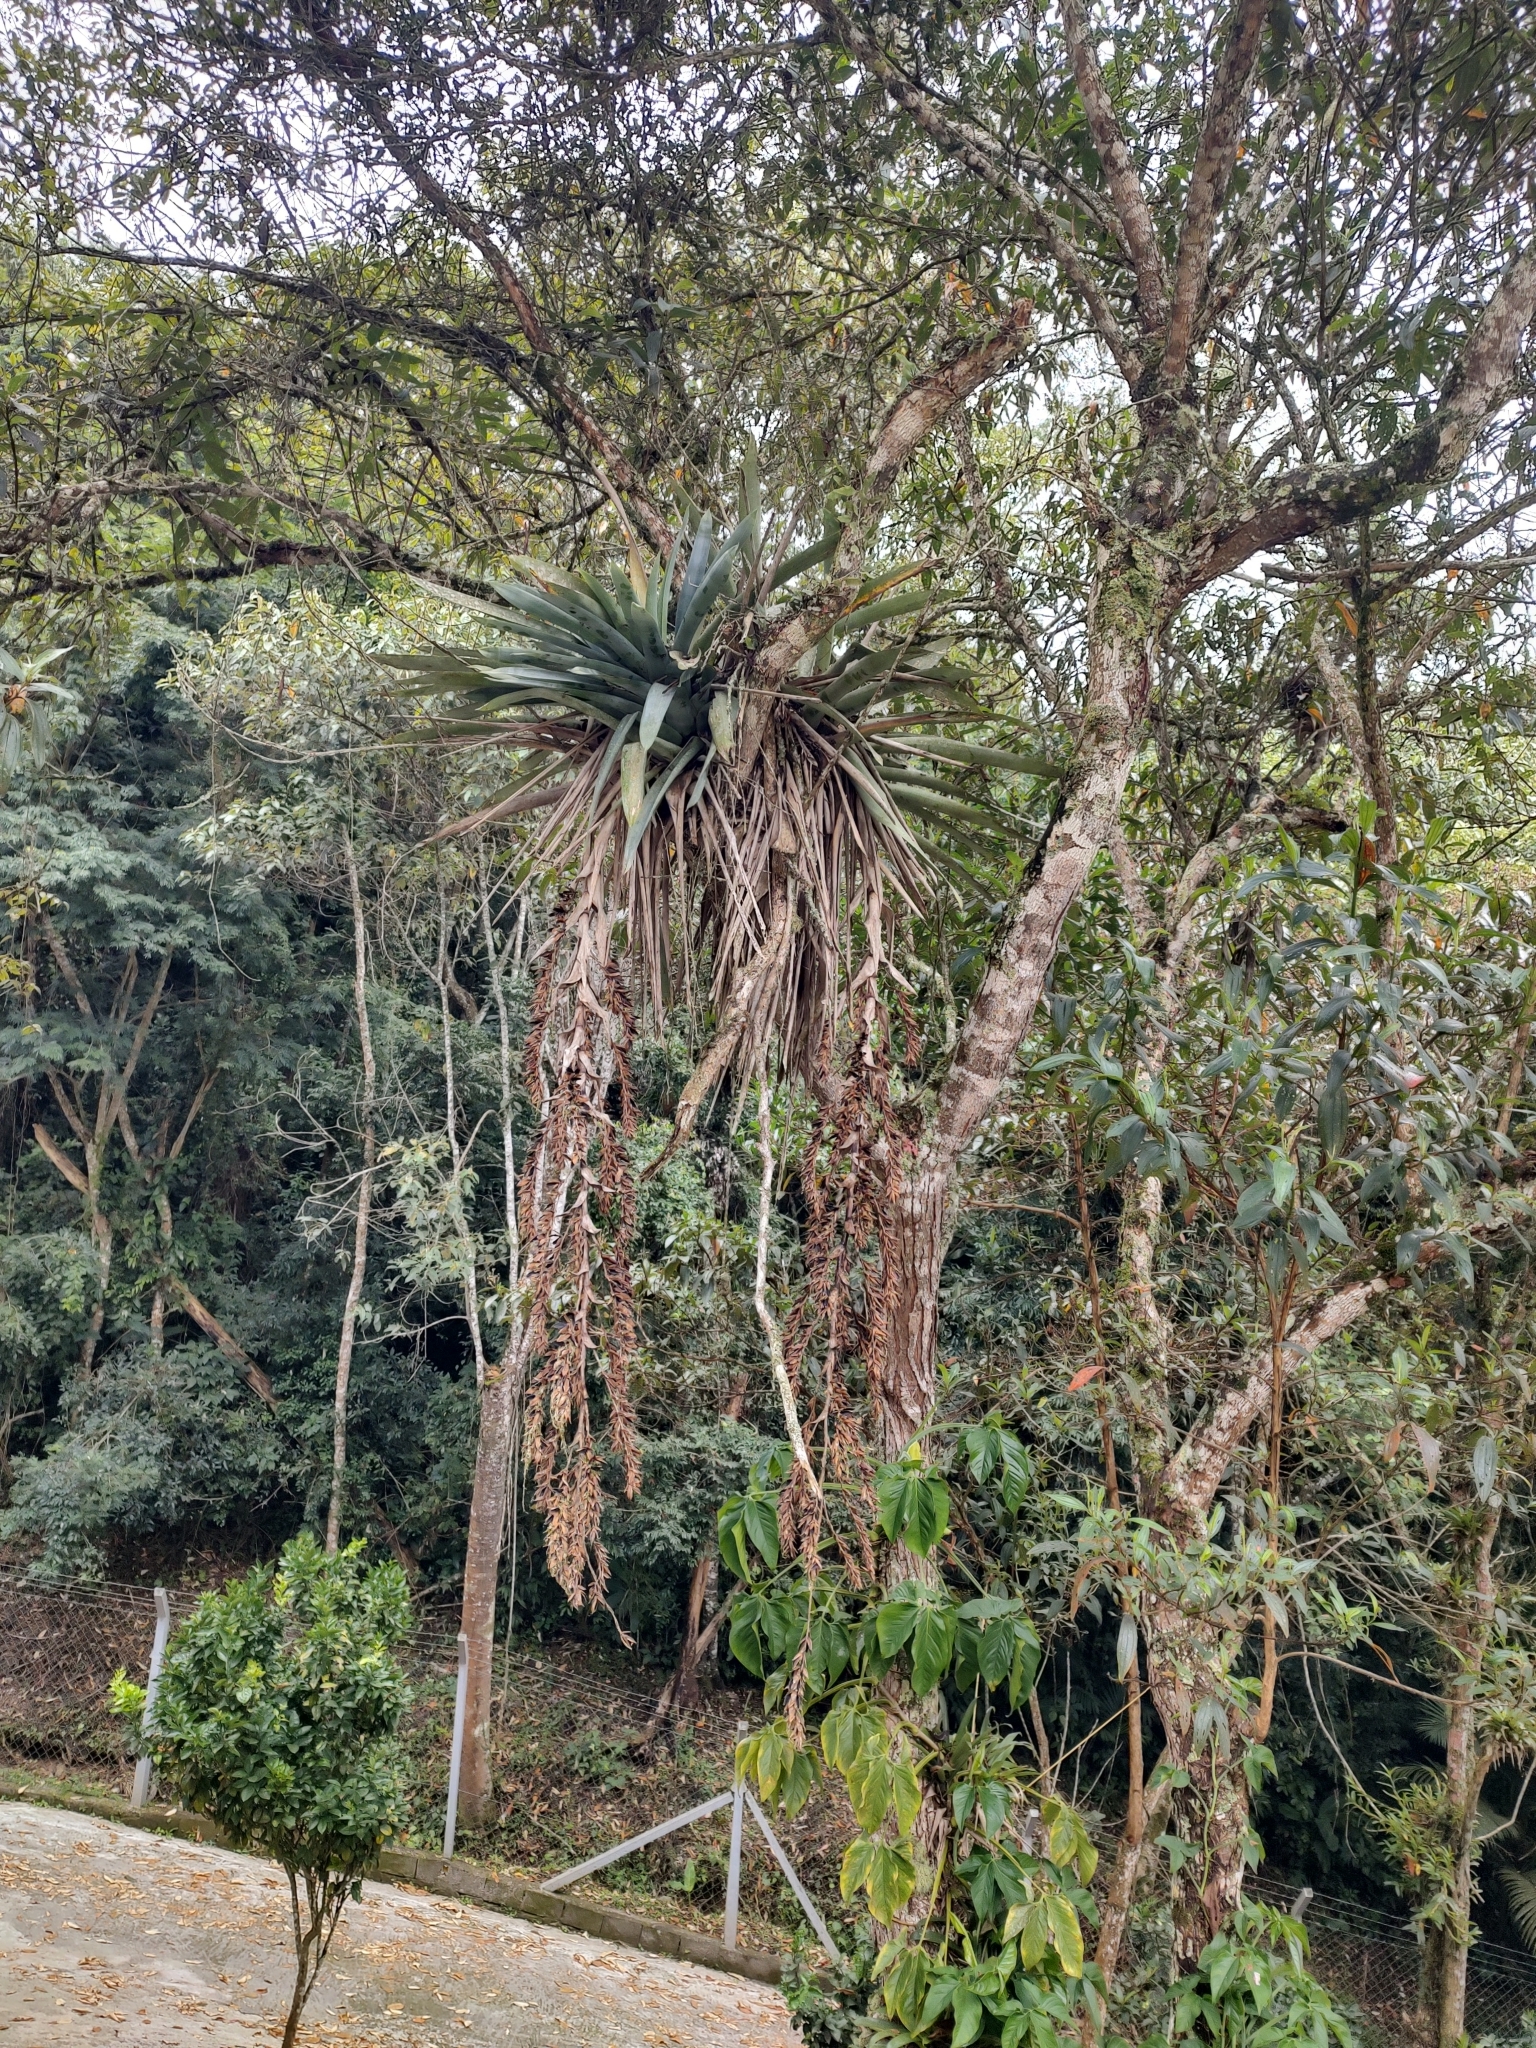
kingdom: Plantae
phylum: Tracheophyta
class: Liliopsida
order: Poales
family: Bromeliaceae
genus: Vriesea
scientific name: Vriesea gigantea
